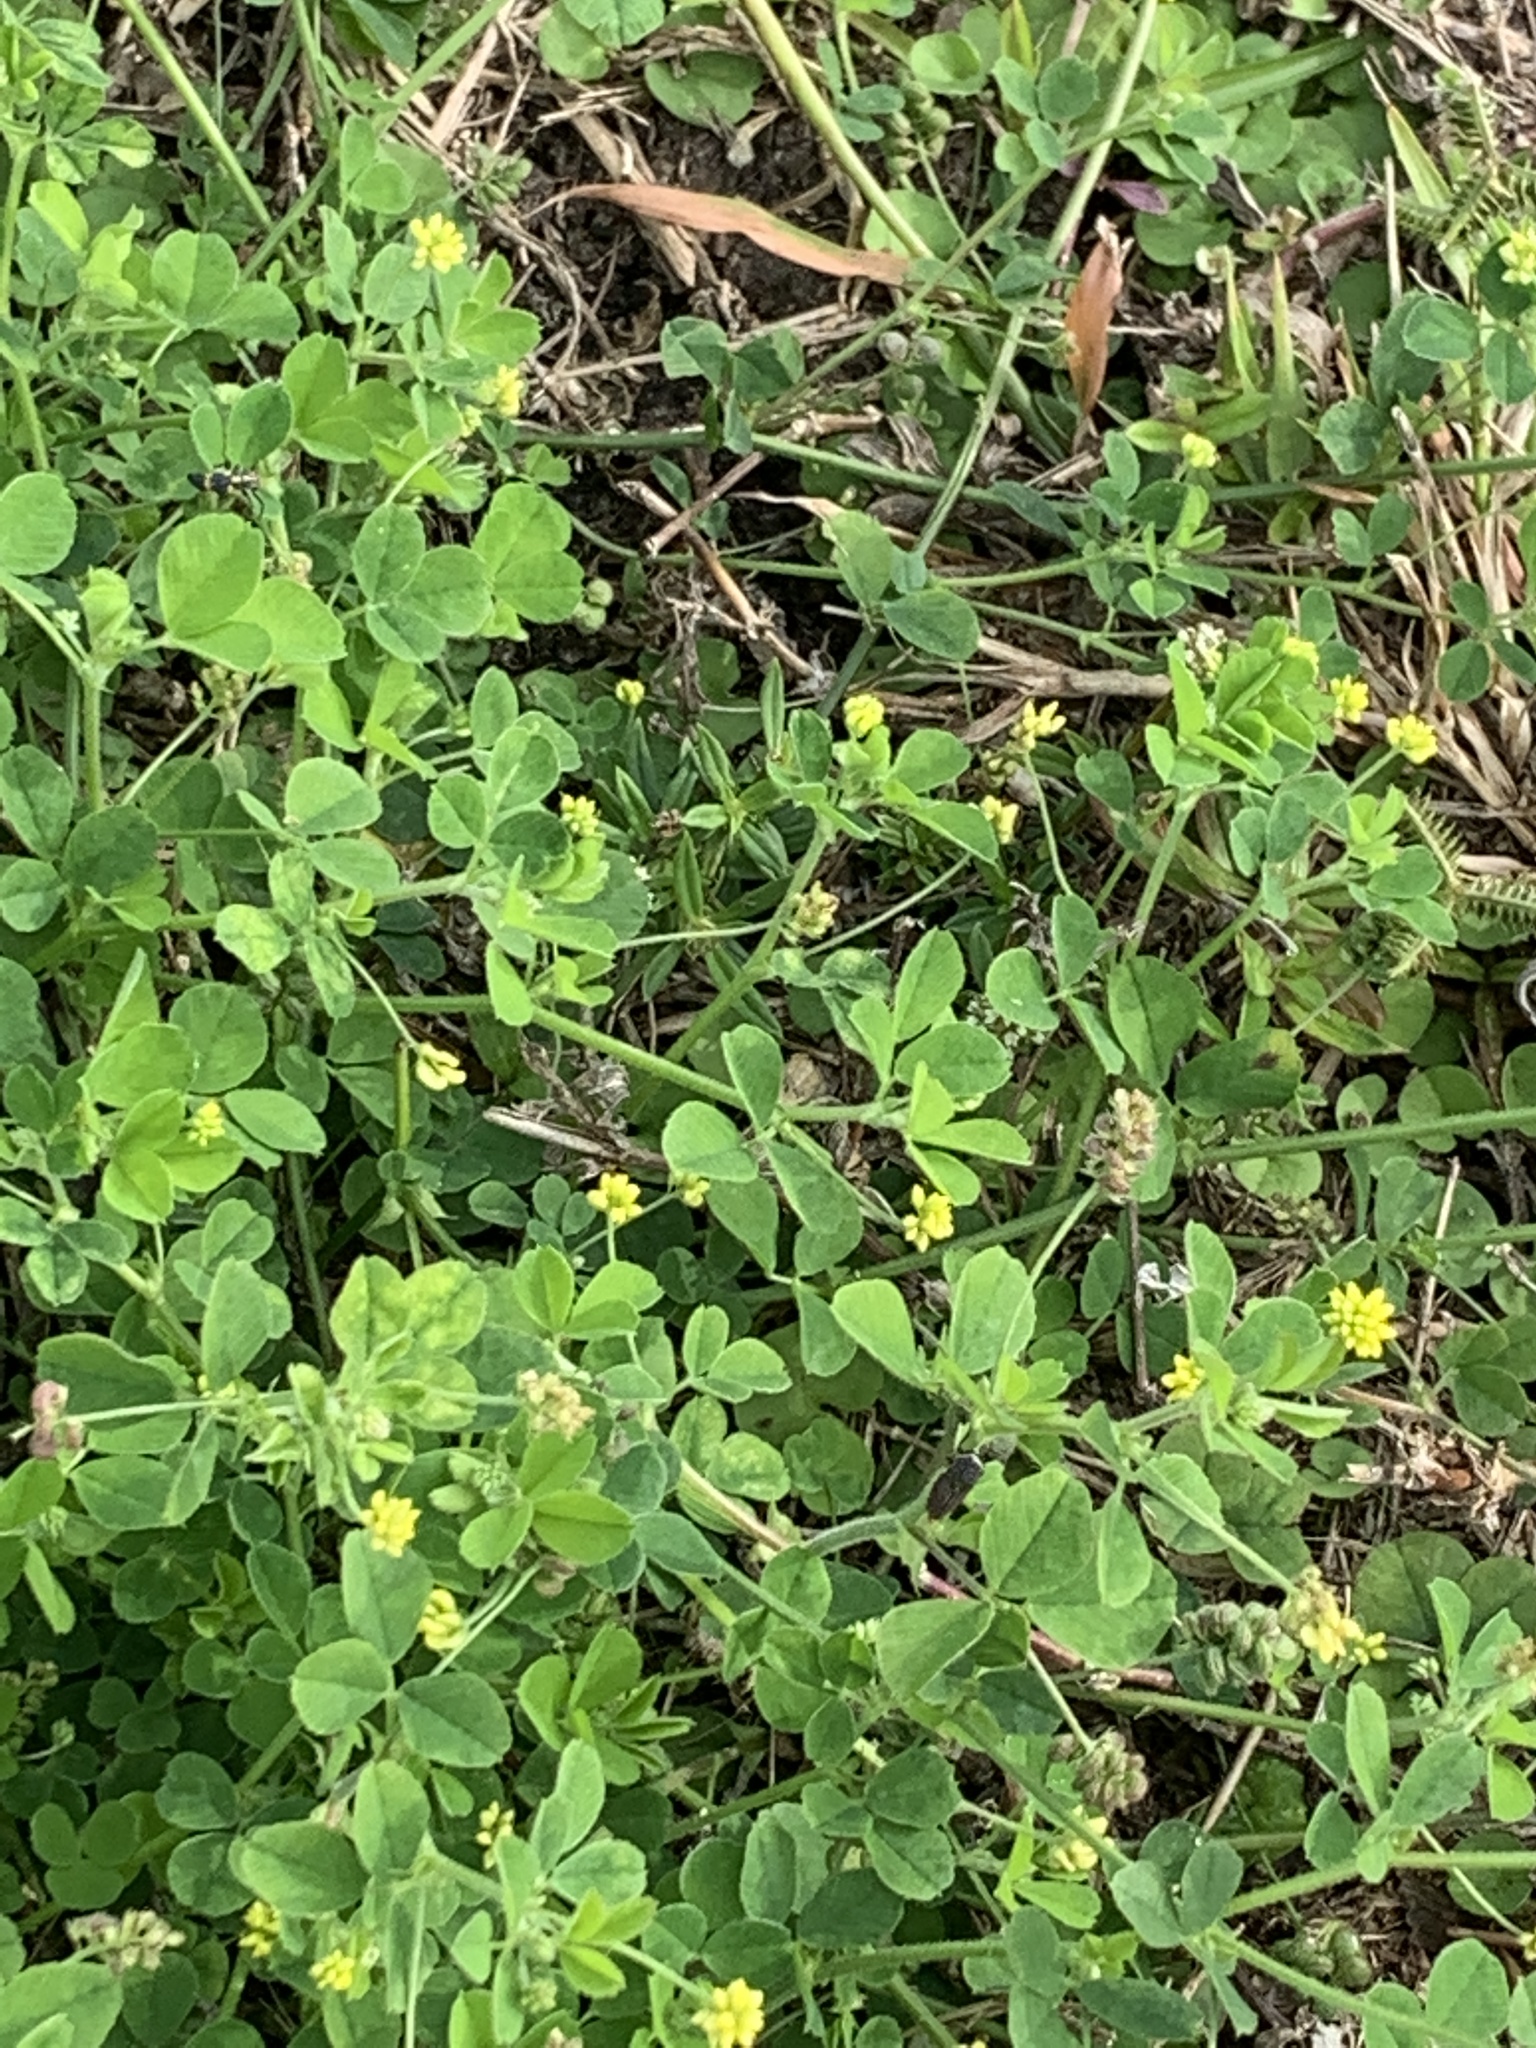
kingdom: Plantae
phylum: Tracheophyta
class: Magnoliopsida
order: Fabales
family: Fabaceae
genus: Medicago
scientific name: Medicago lupulina
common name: Black medick
